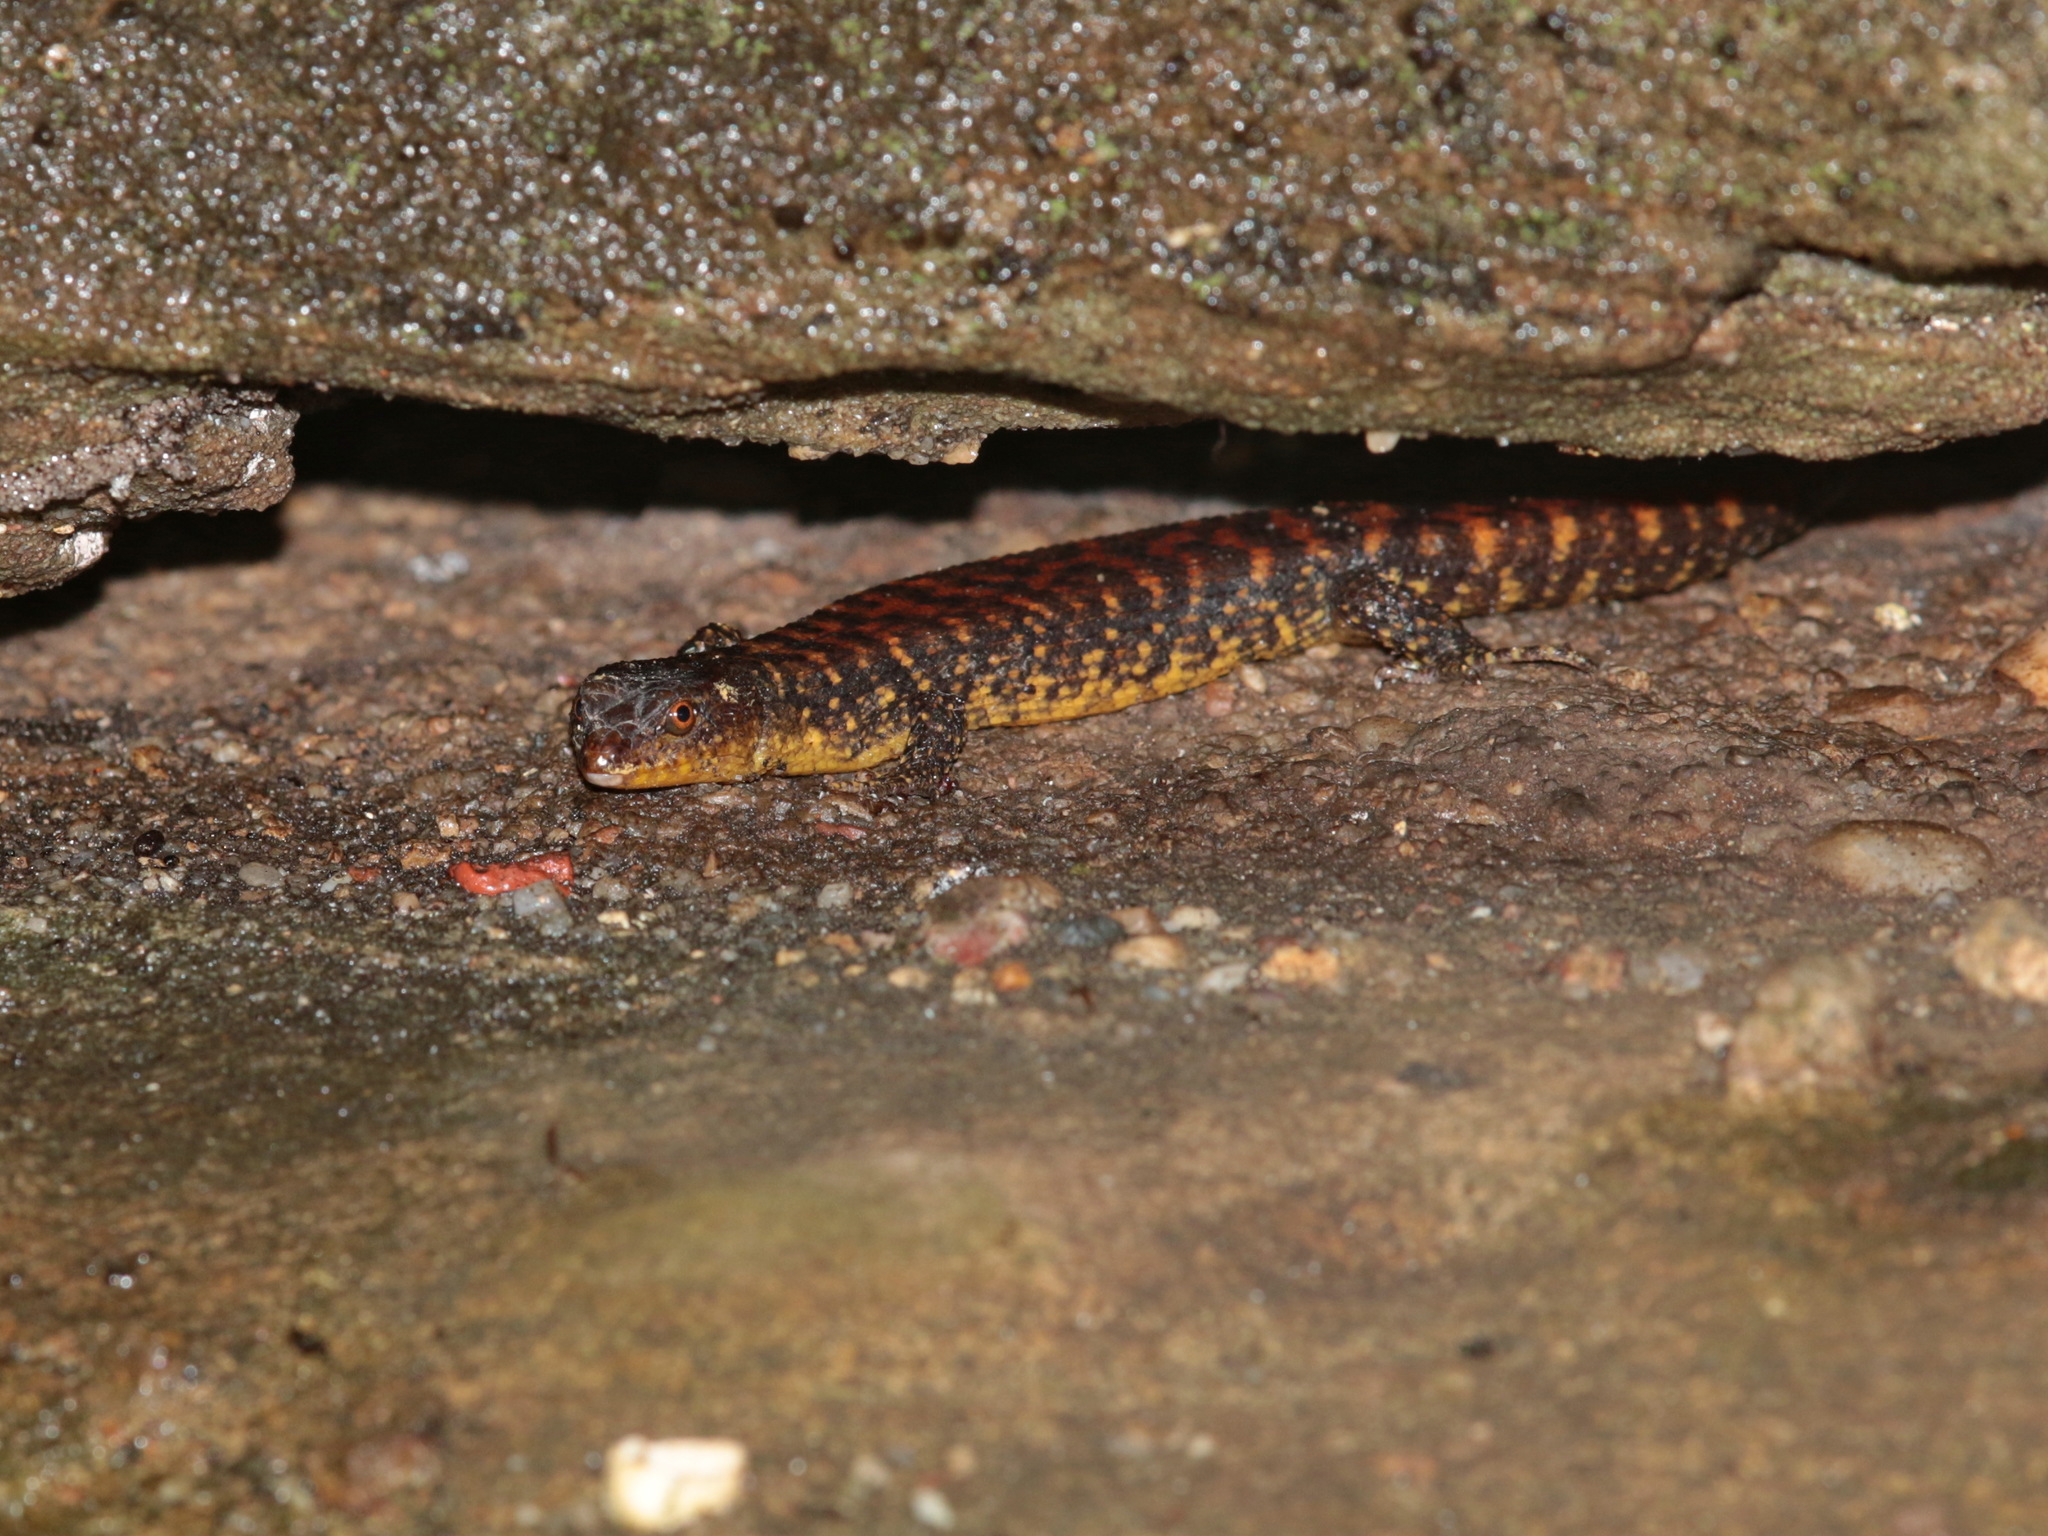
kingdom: Animalia
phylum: Chordata
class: Squamata
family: Scincidae
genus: Tropidophorus
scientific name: Tropidophorus matsuii
